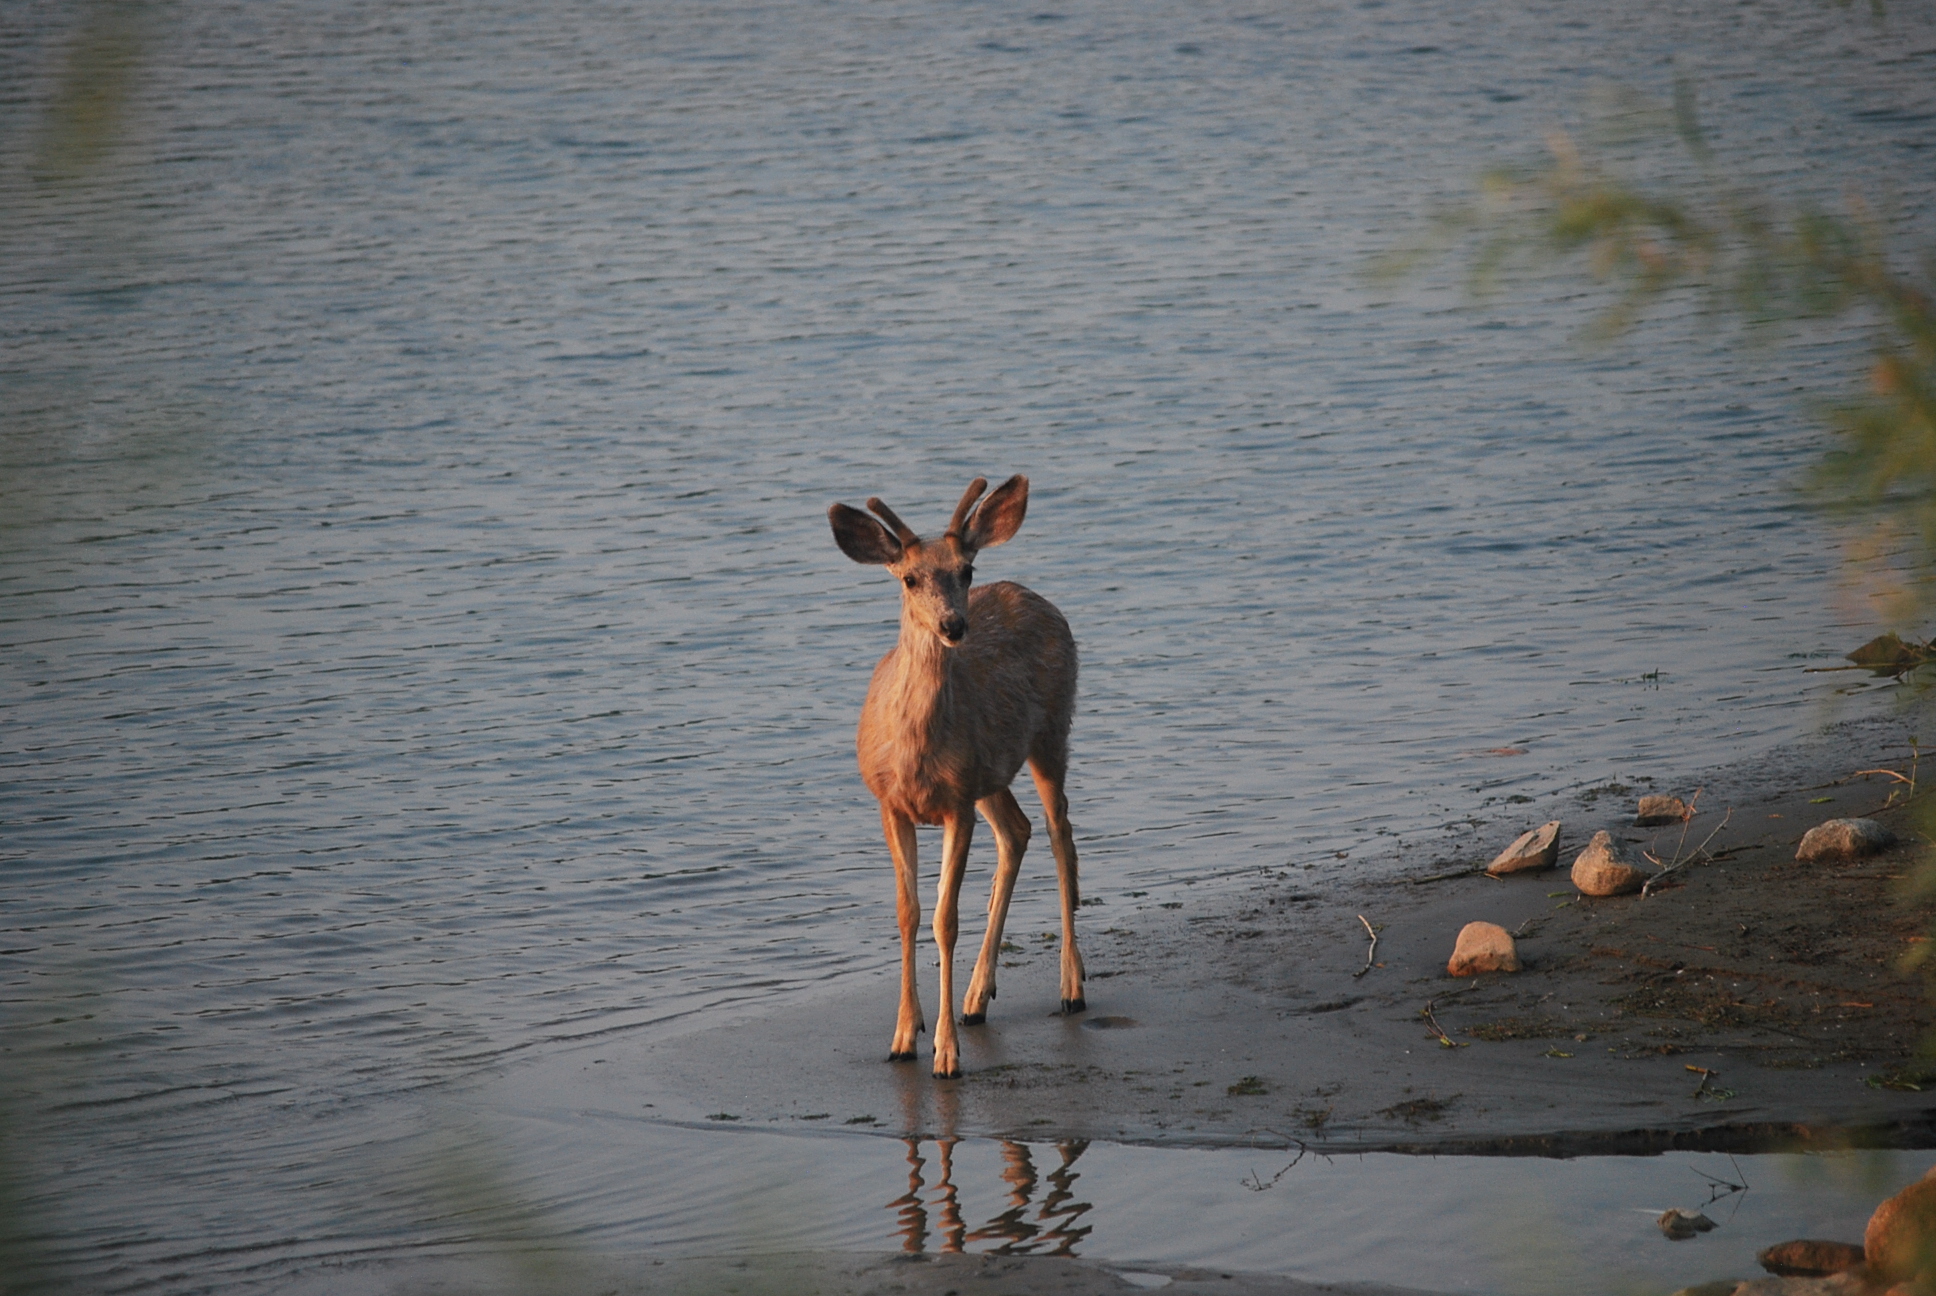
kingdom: Animalia
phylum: Chordata
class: Mammalia
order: Artiodactyla
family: Cervidae
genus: Odocoileus
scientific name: Odocoileus hemionus
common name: Mule deer
